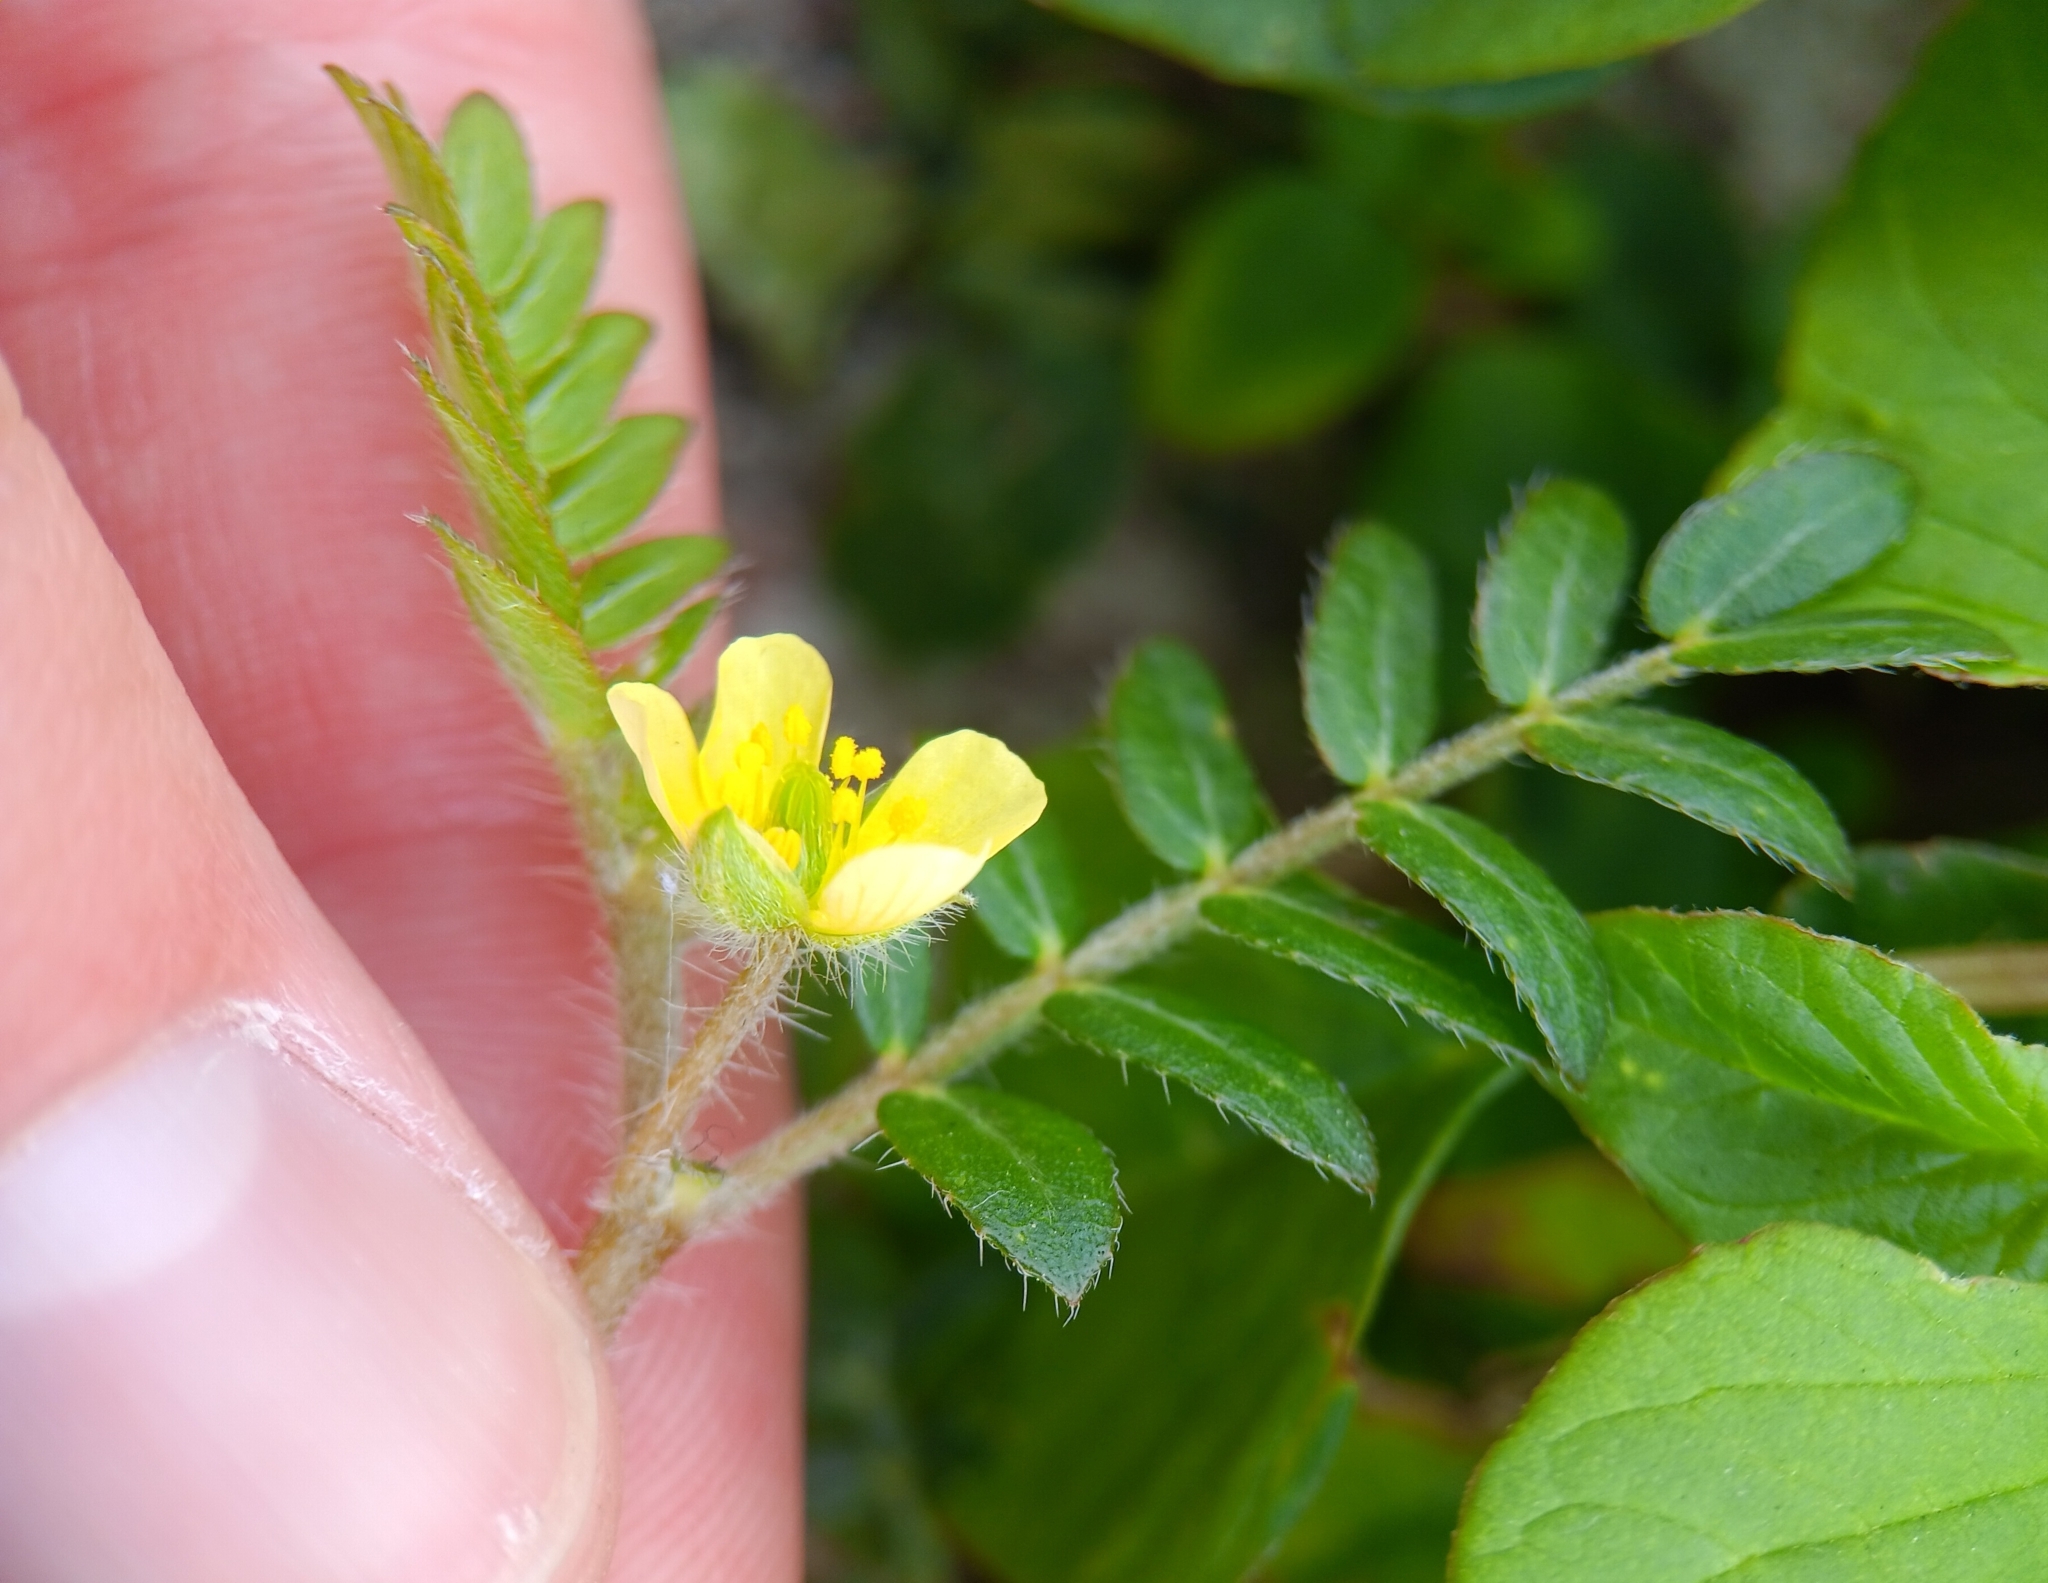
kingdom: Plantae
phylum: Tracheophyta
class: Magnoliopsida
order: Zygophyllales
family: Zygophyllaceae
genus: Tribulus
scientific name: Tribulus terrestris
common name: Puncturevine
